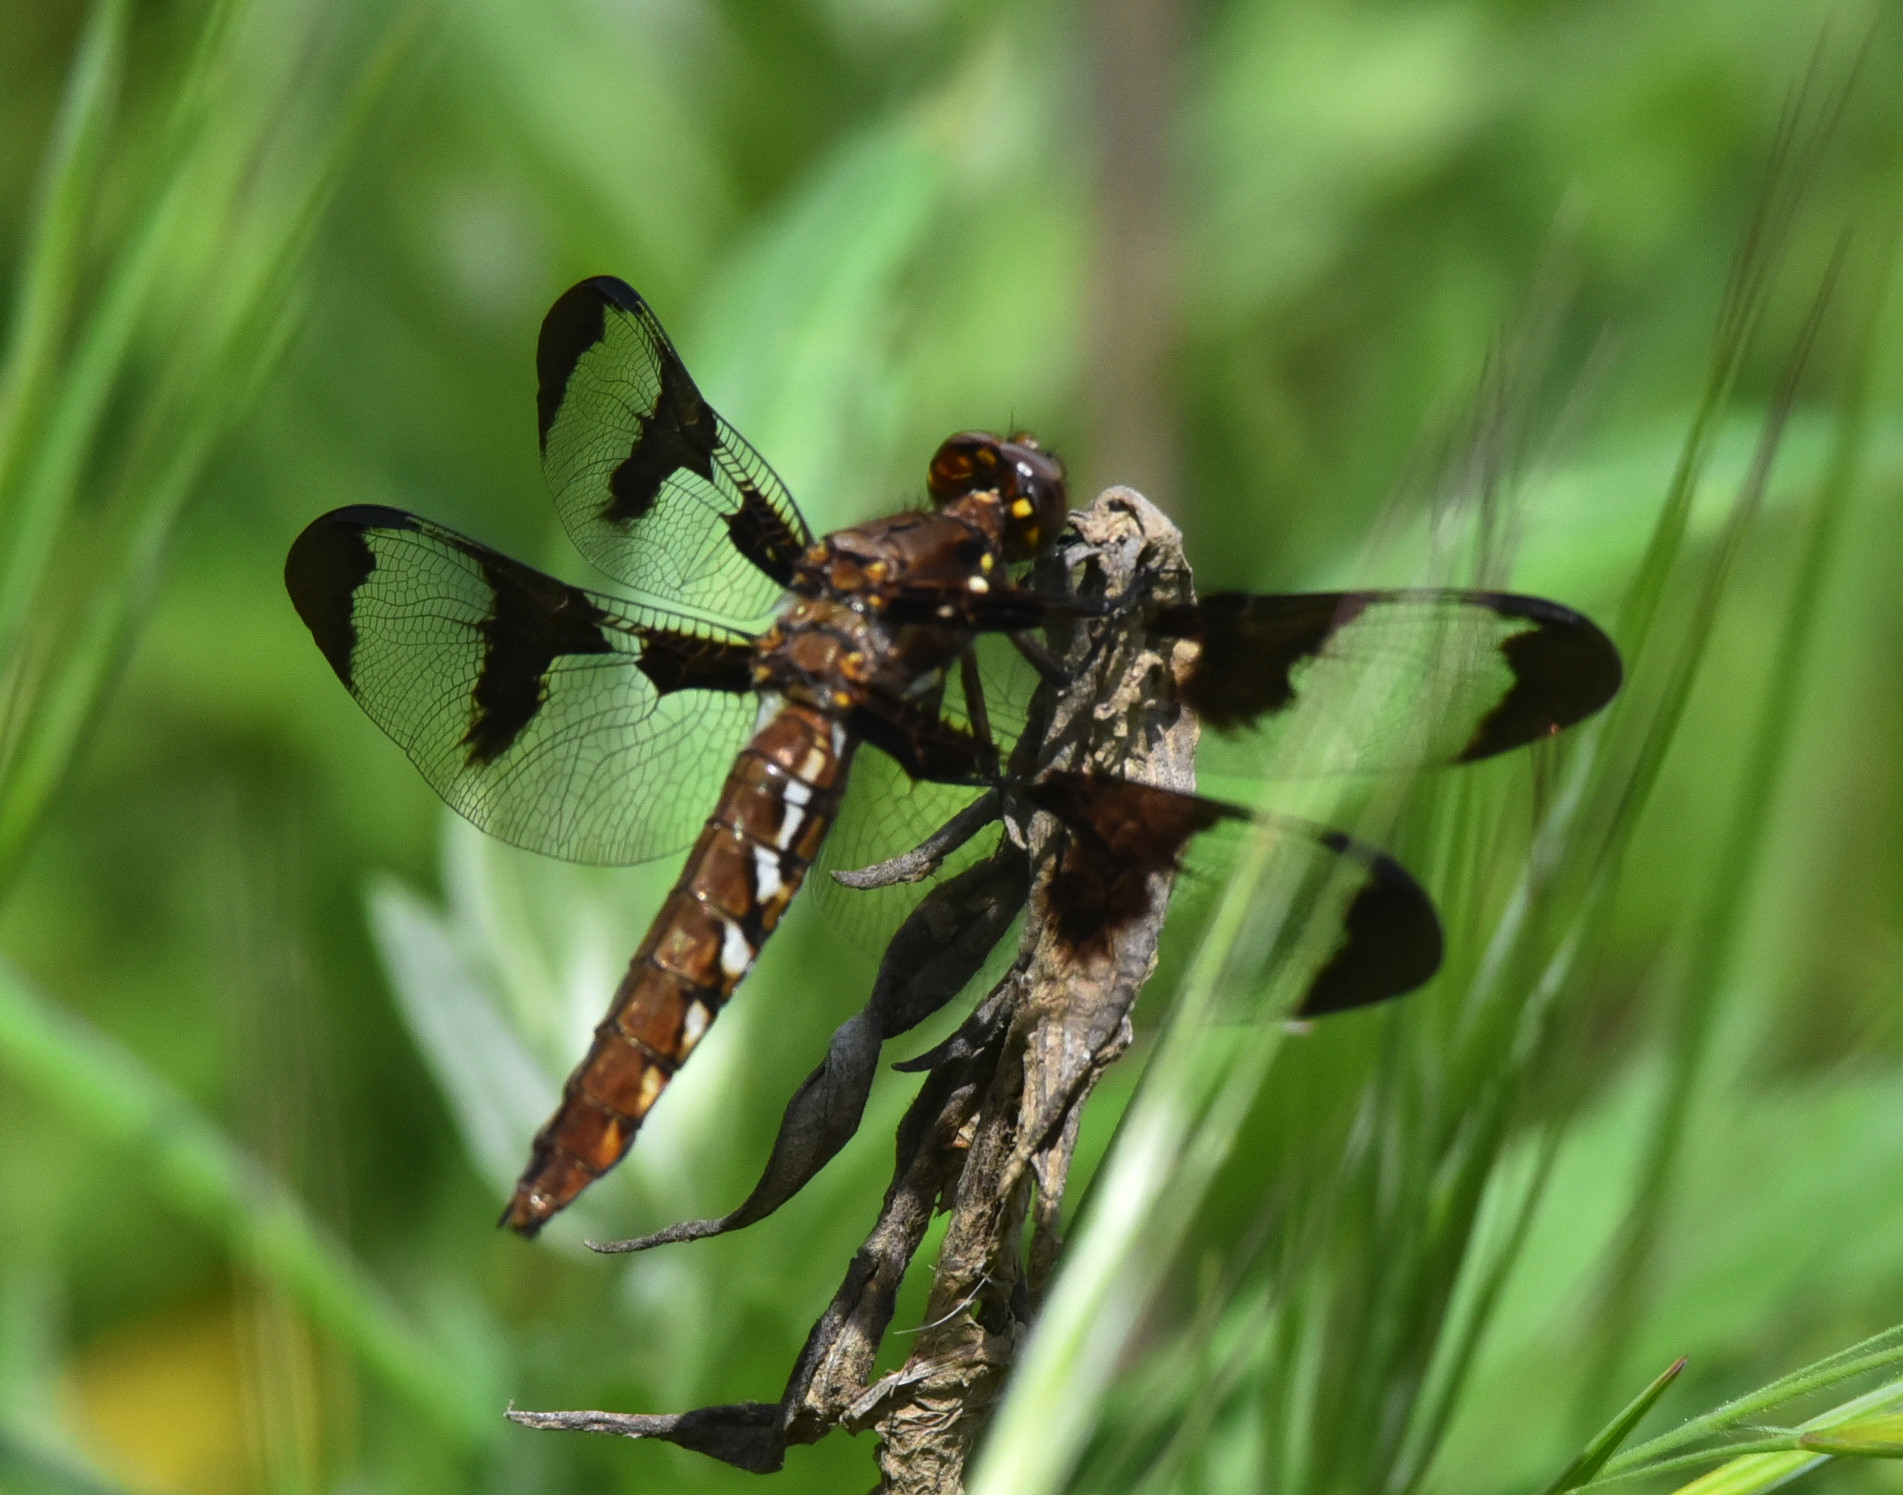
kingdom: Animalia
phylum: Arthropoda
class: Insecta
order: Odonata
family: Libellulidae
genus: Plathemis
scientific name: Plathemis lydia
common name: Common whitetail
